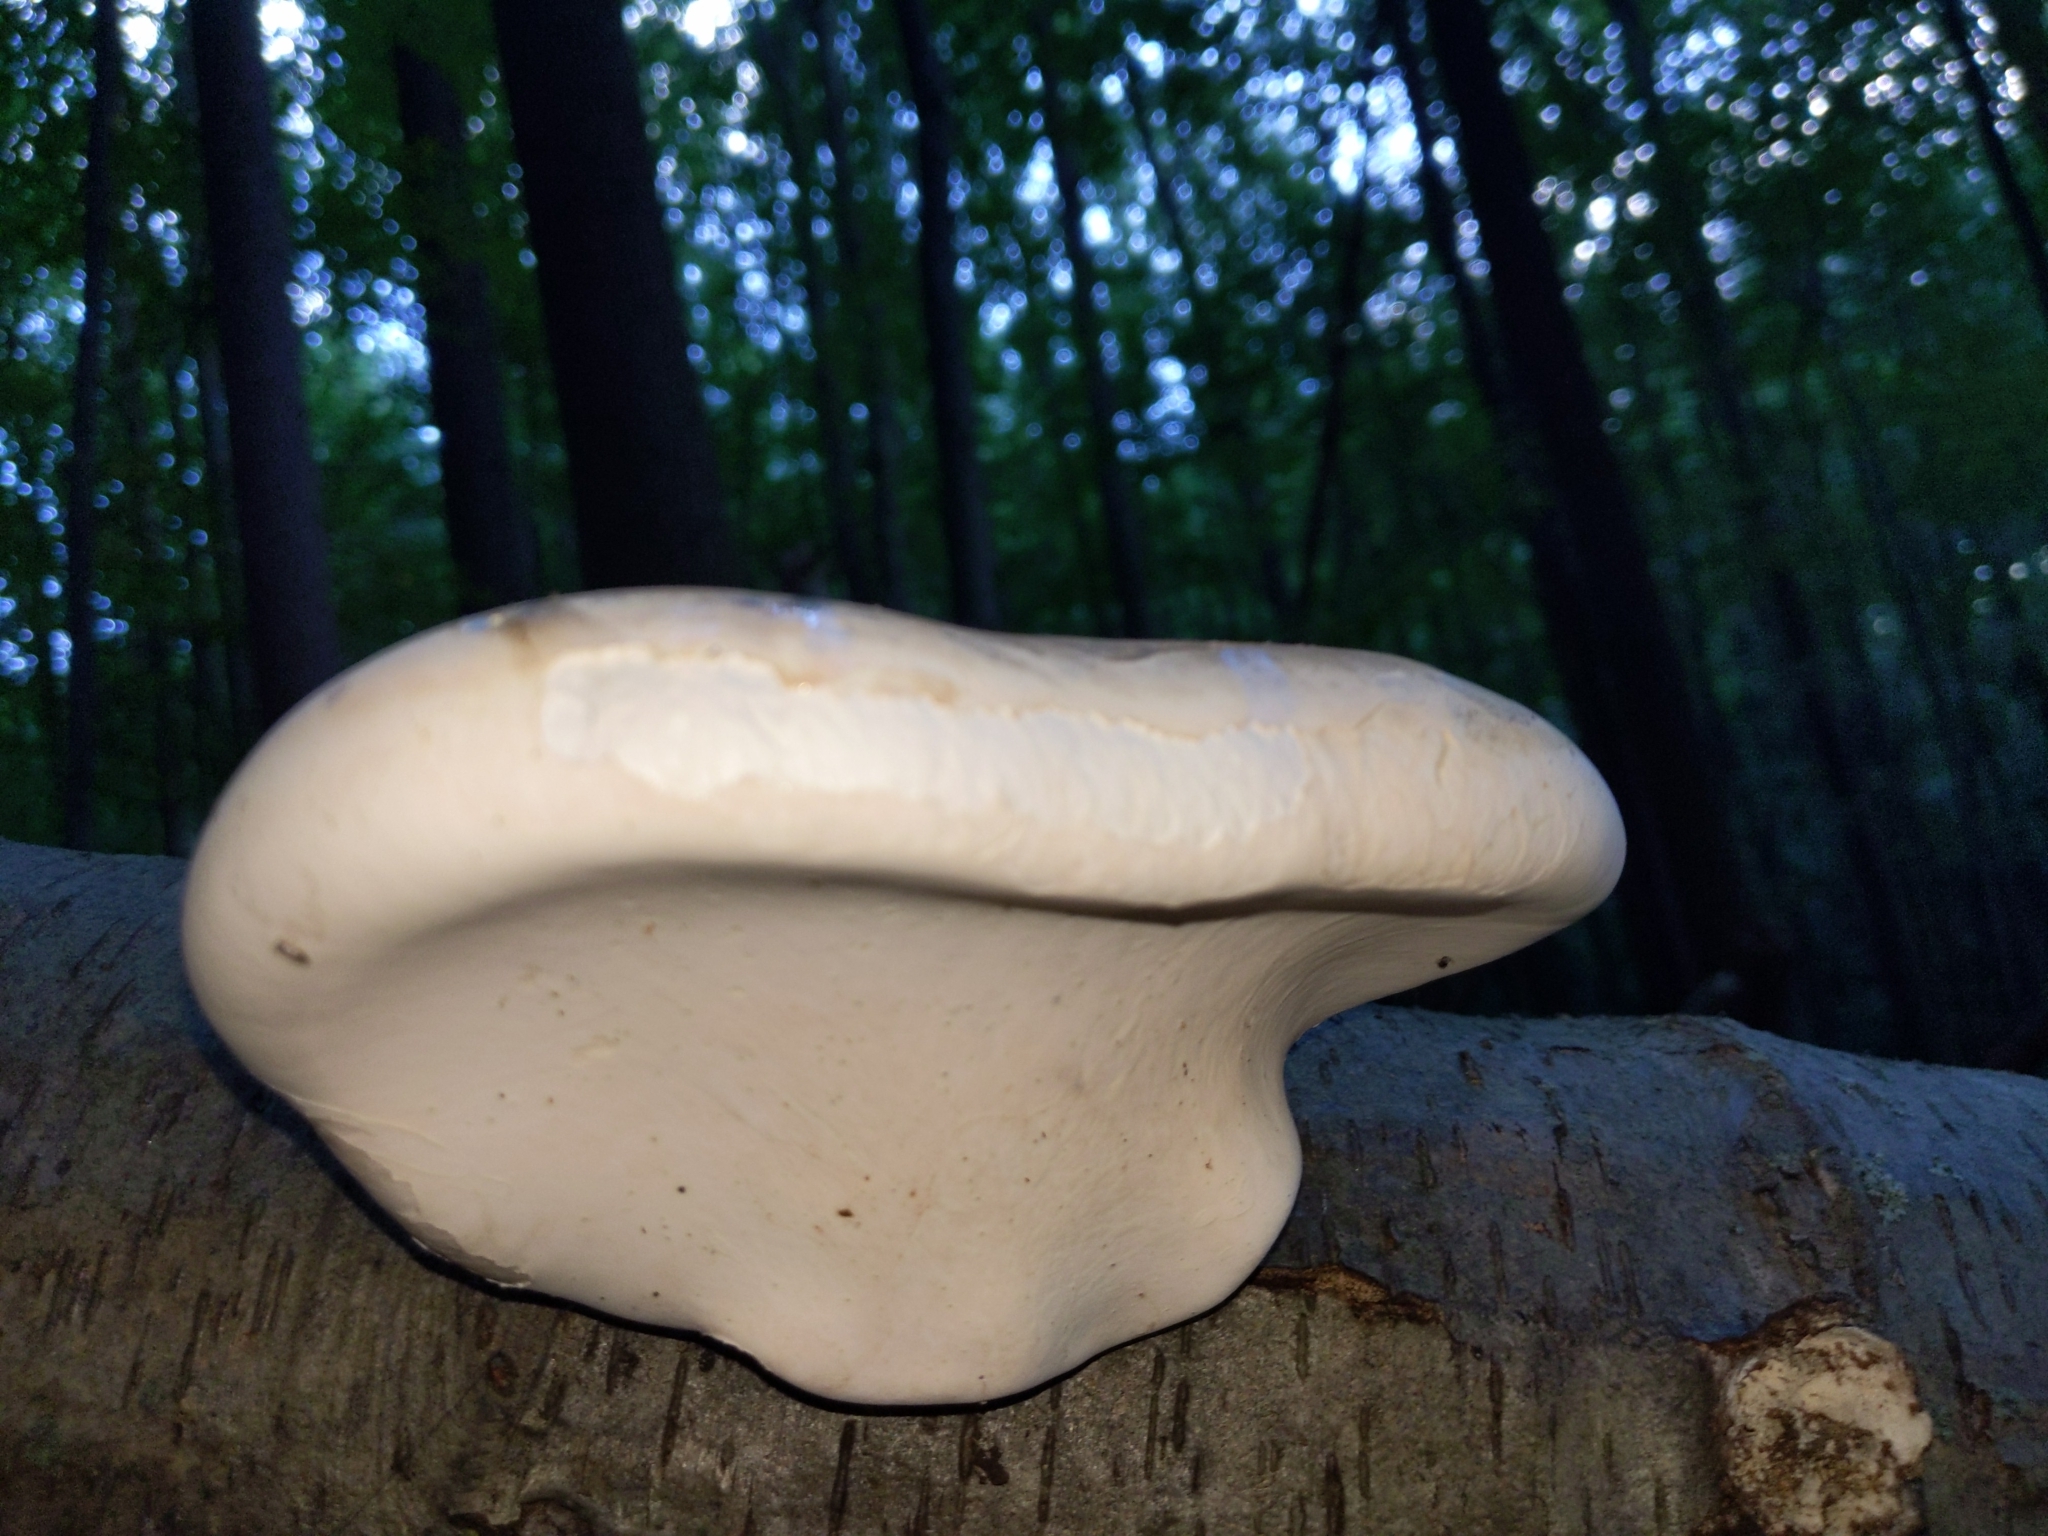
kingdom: Fungi
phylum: Basidiomycota
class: Agaricomycetes
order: Polyporales
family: Fomitopsidaceae
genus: Fomitopsis
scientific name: Fomitopsis betulina
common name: Birch polypore
